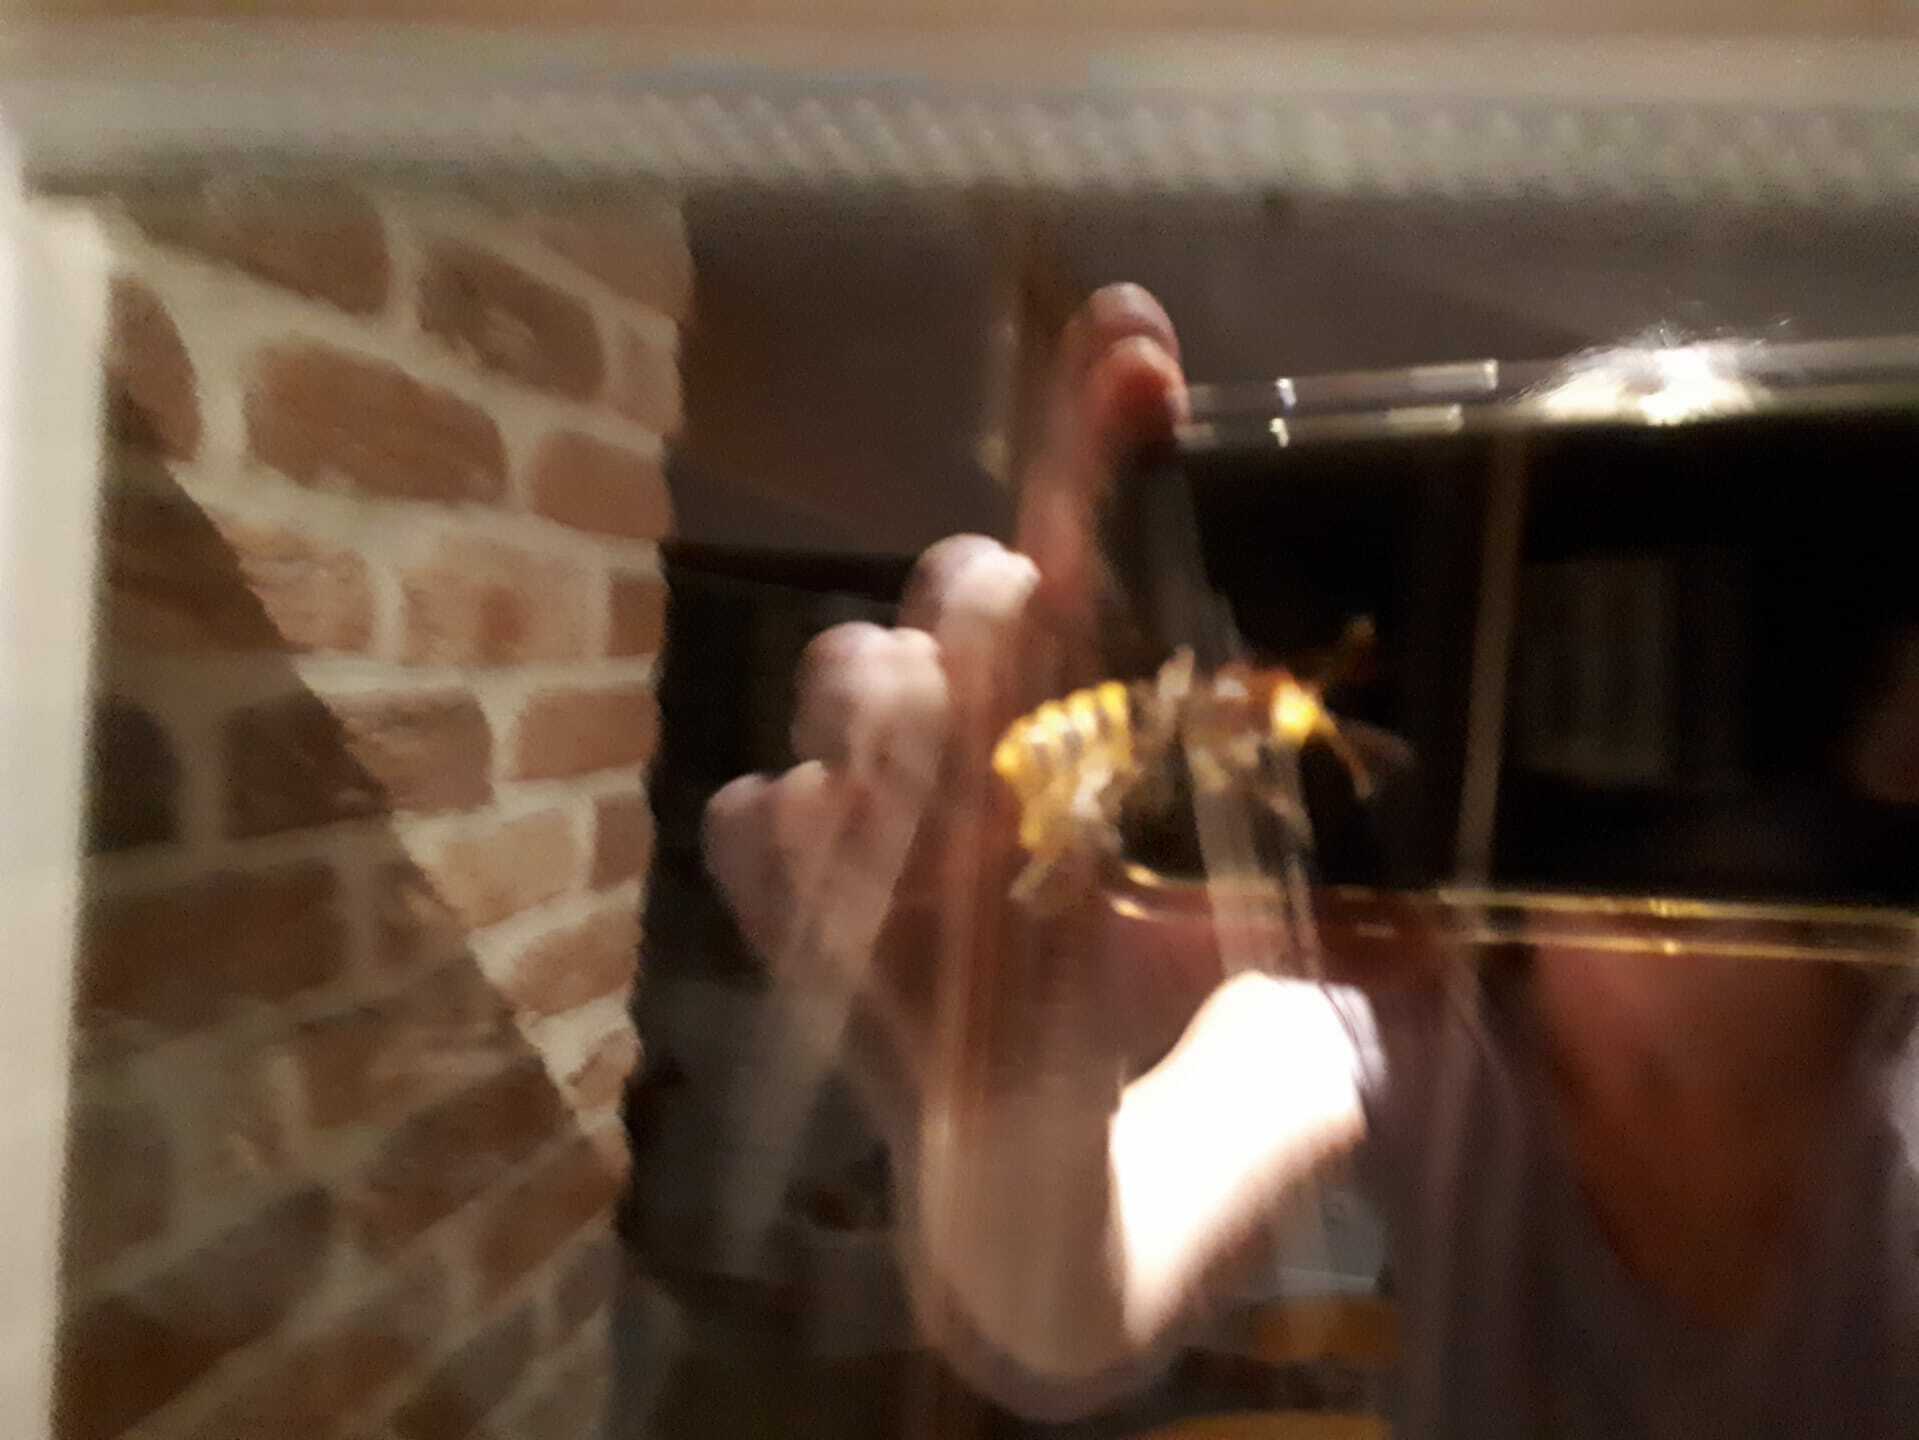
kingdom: Animalia
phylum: Arthropoda
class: Insecta
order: Hymenoptera
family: Vespidae
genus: Vespa
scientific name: Vespa crabro
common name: Hornet
